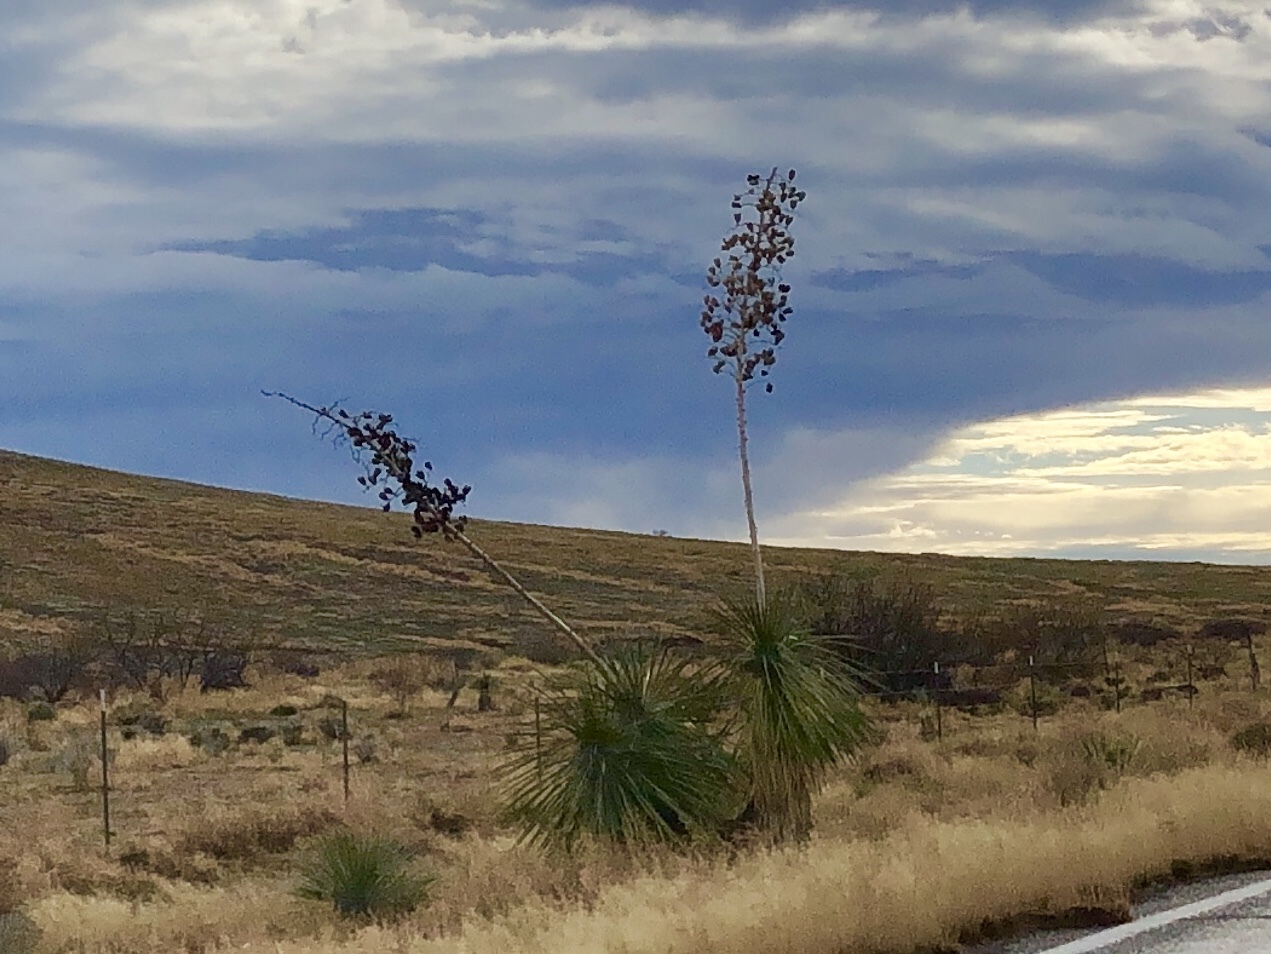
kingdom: Plantae
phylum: Tracheophyta
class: Liliopsida
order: Asparagales
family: Asparagaceae
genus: Yucca
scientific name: Yucca elata
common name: Palmella
